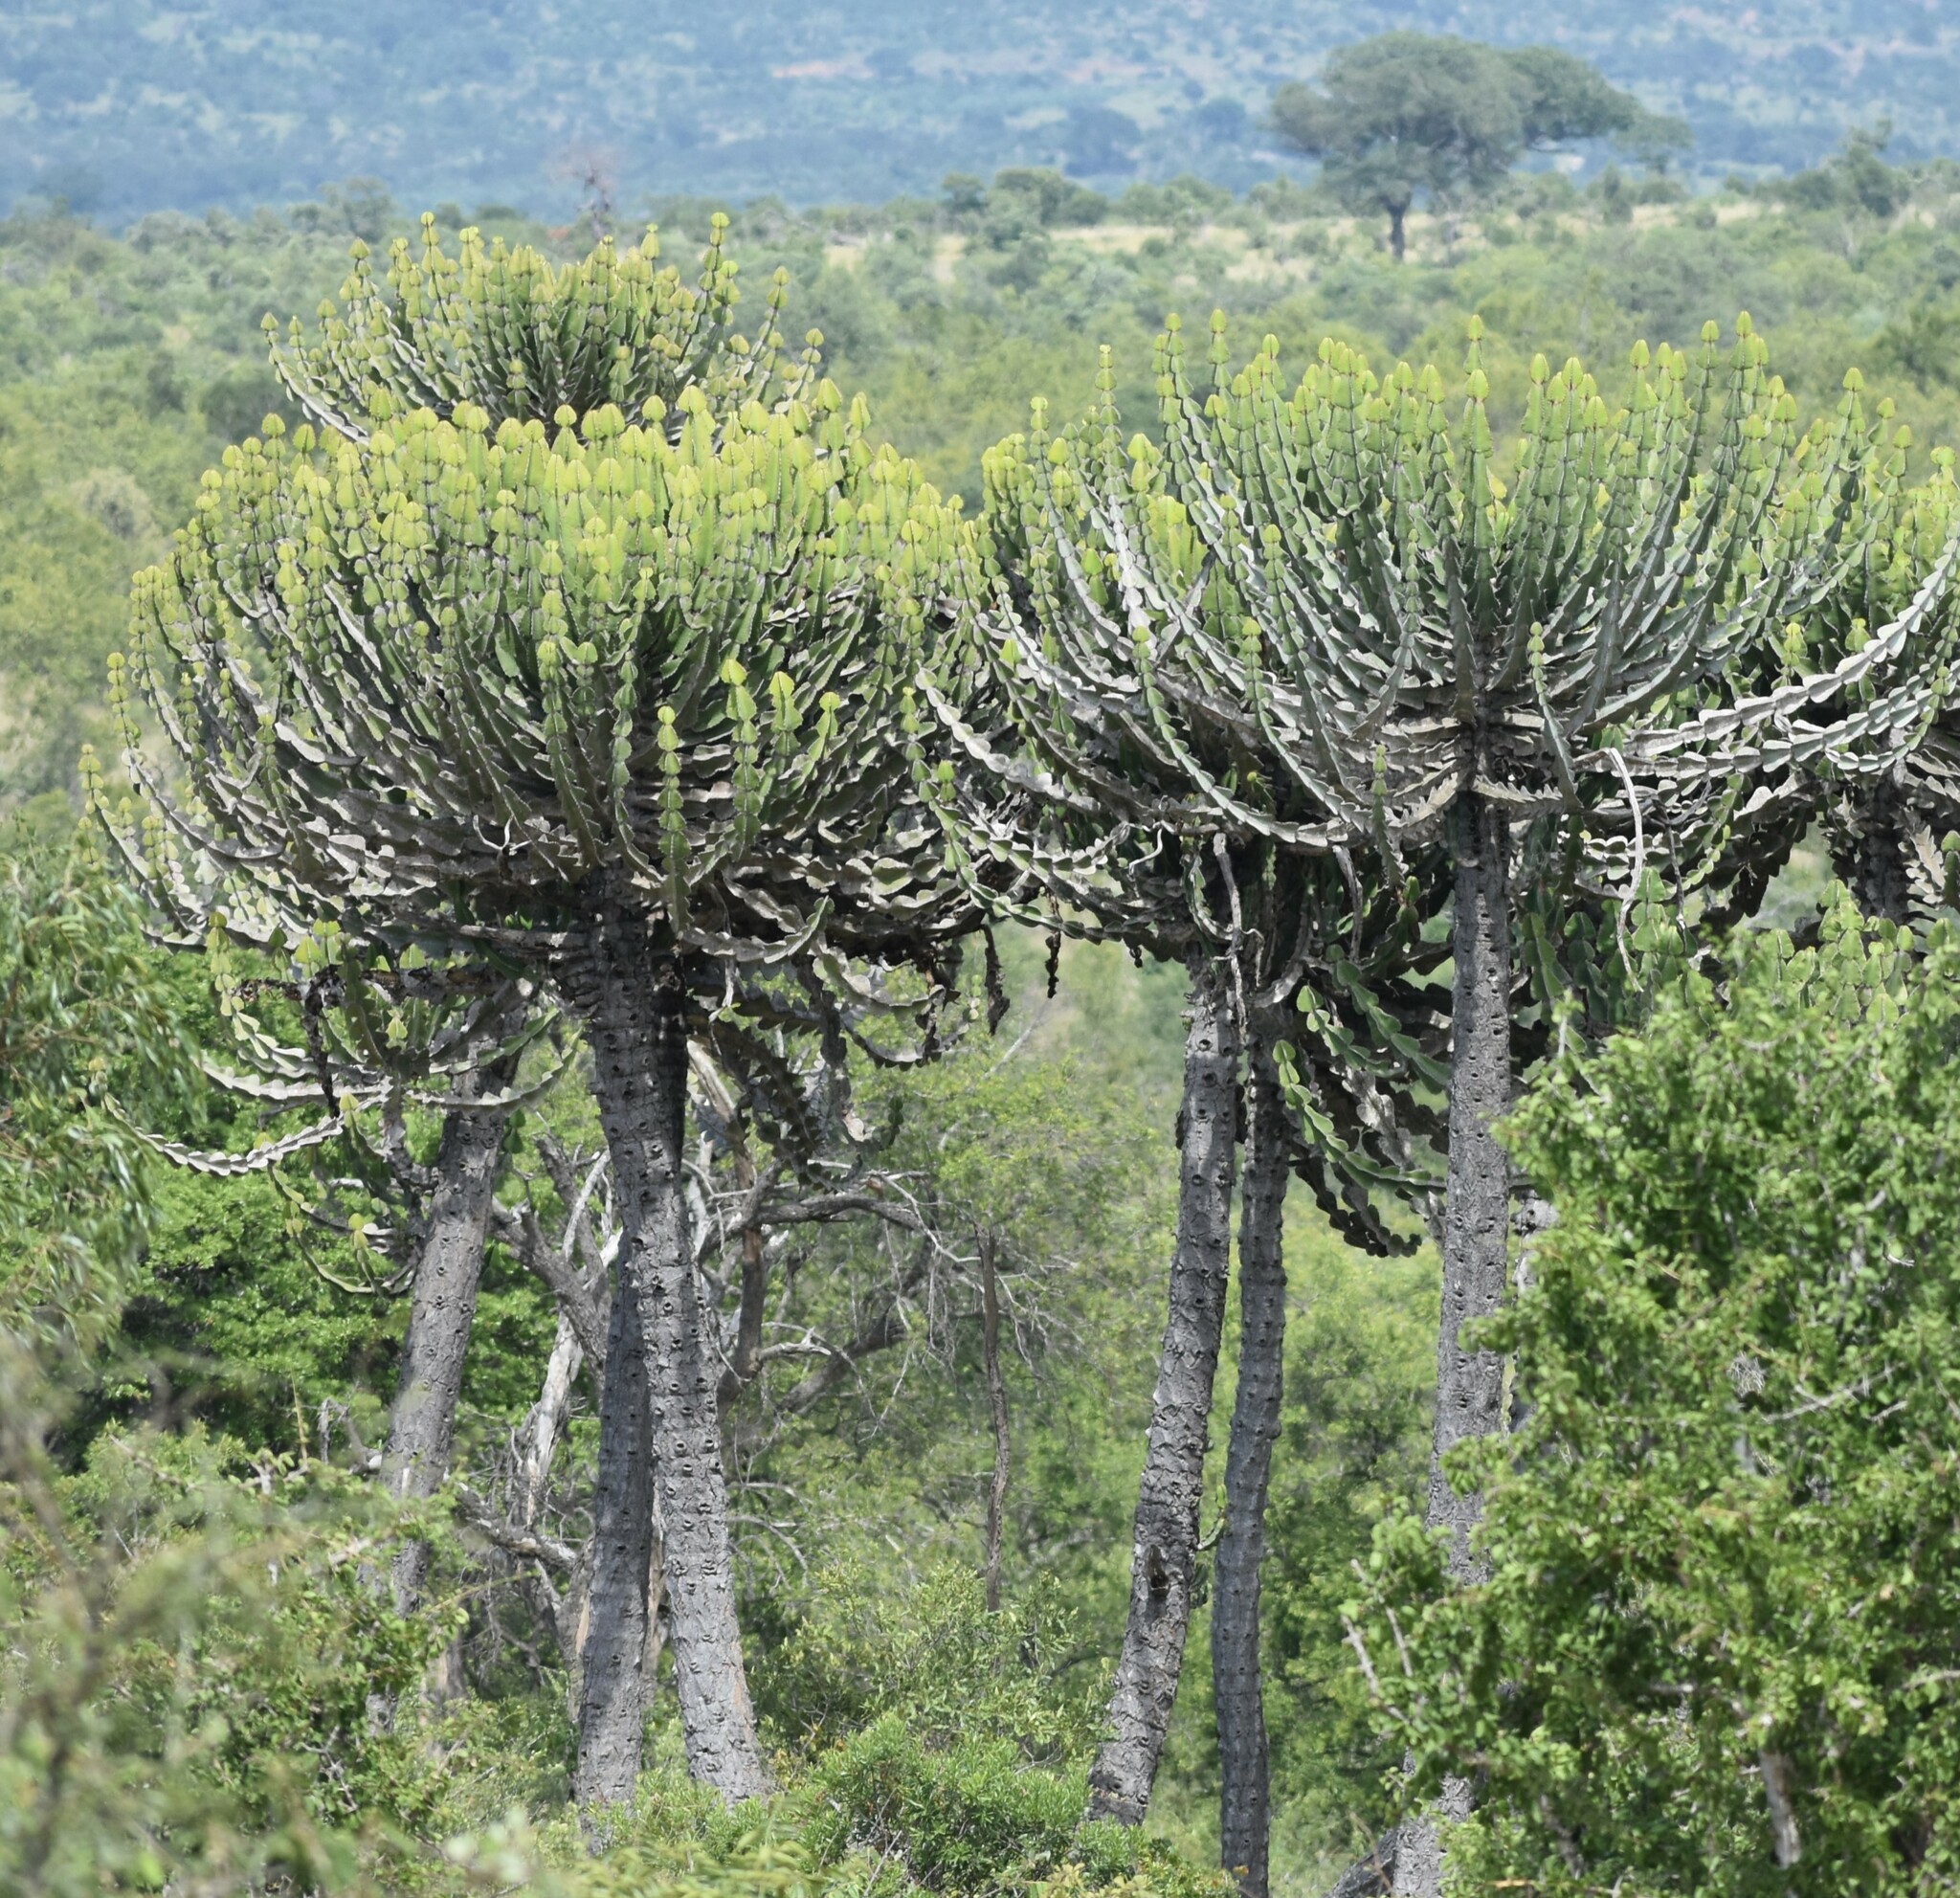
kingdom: Plantae
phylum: Tracheophyta
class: Magnoliopsida
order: Malpighiales
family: Euphorbiaceae
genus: Euphorbia
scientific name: Euphorbia cooperi
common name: Candelabra tree
